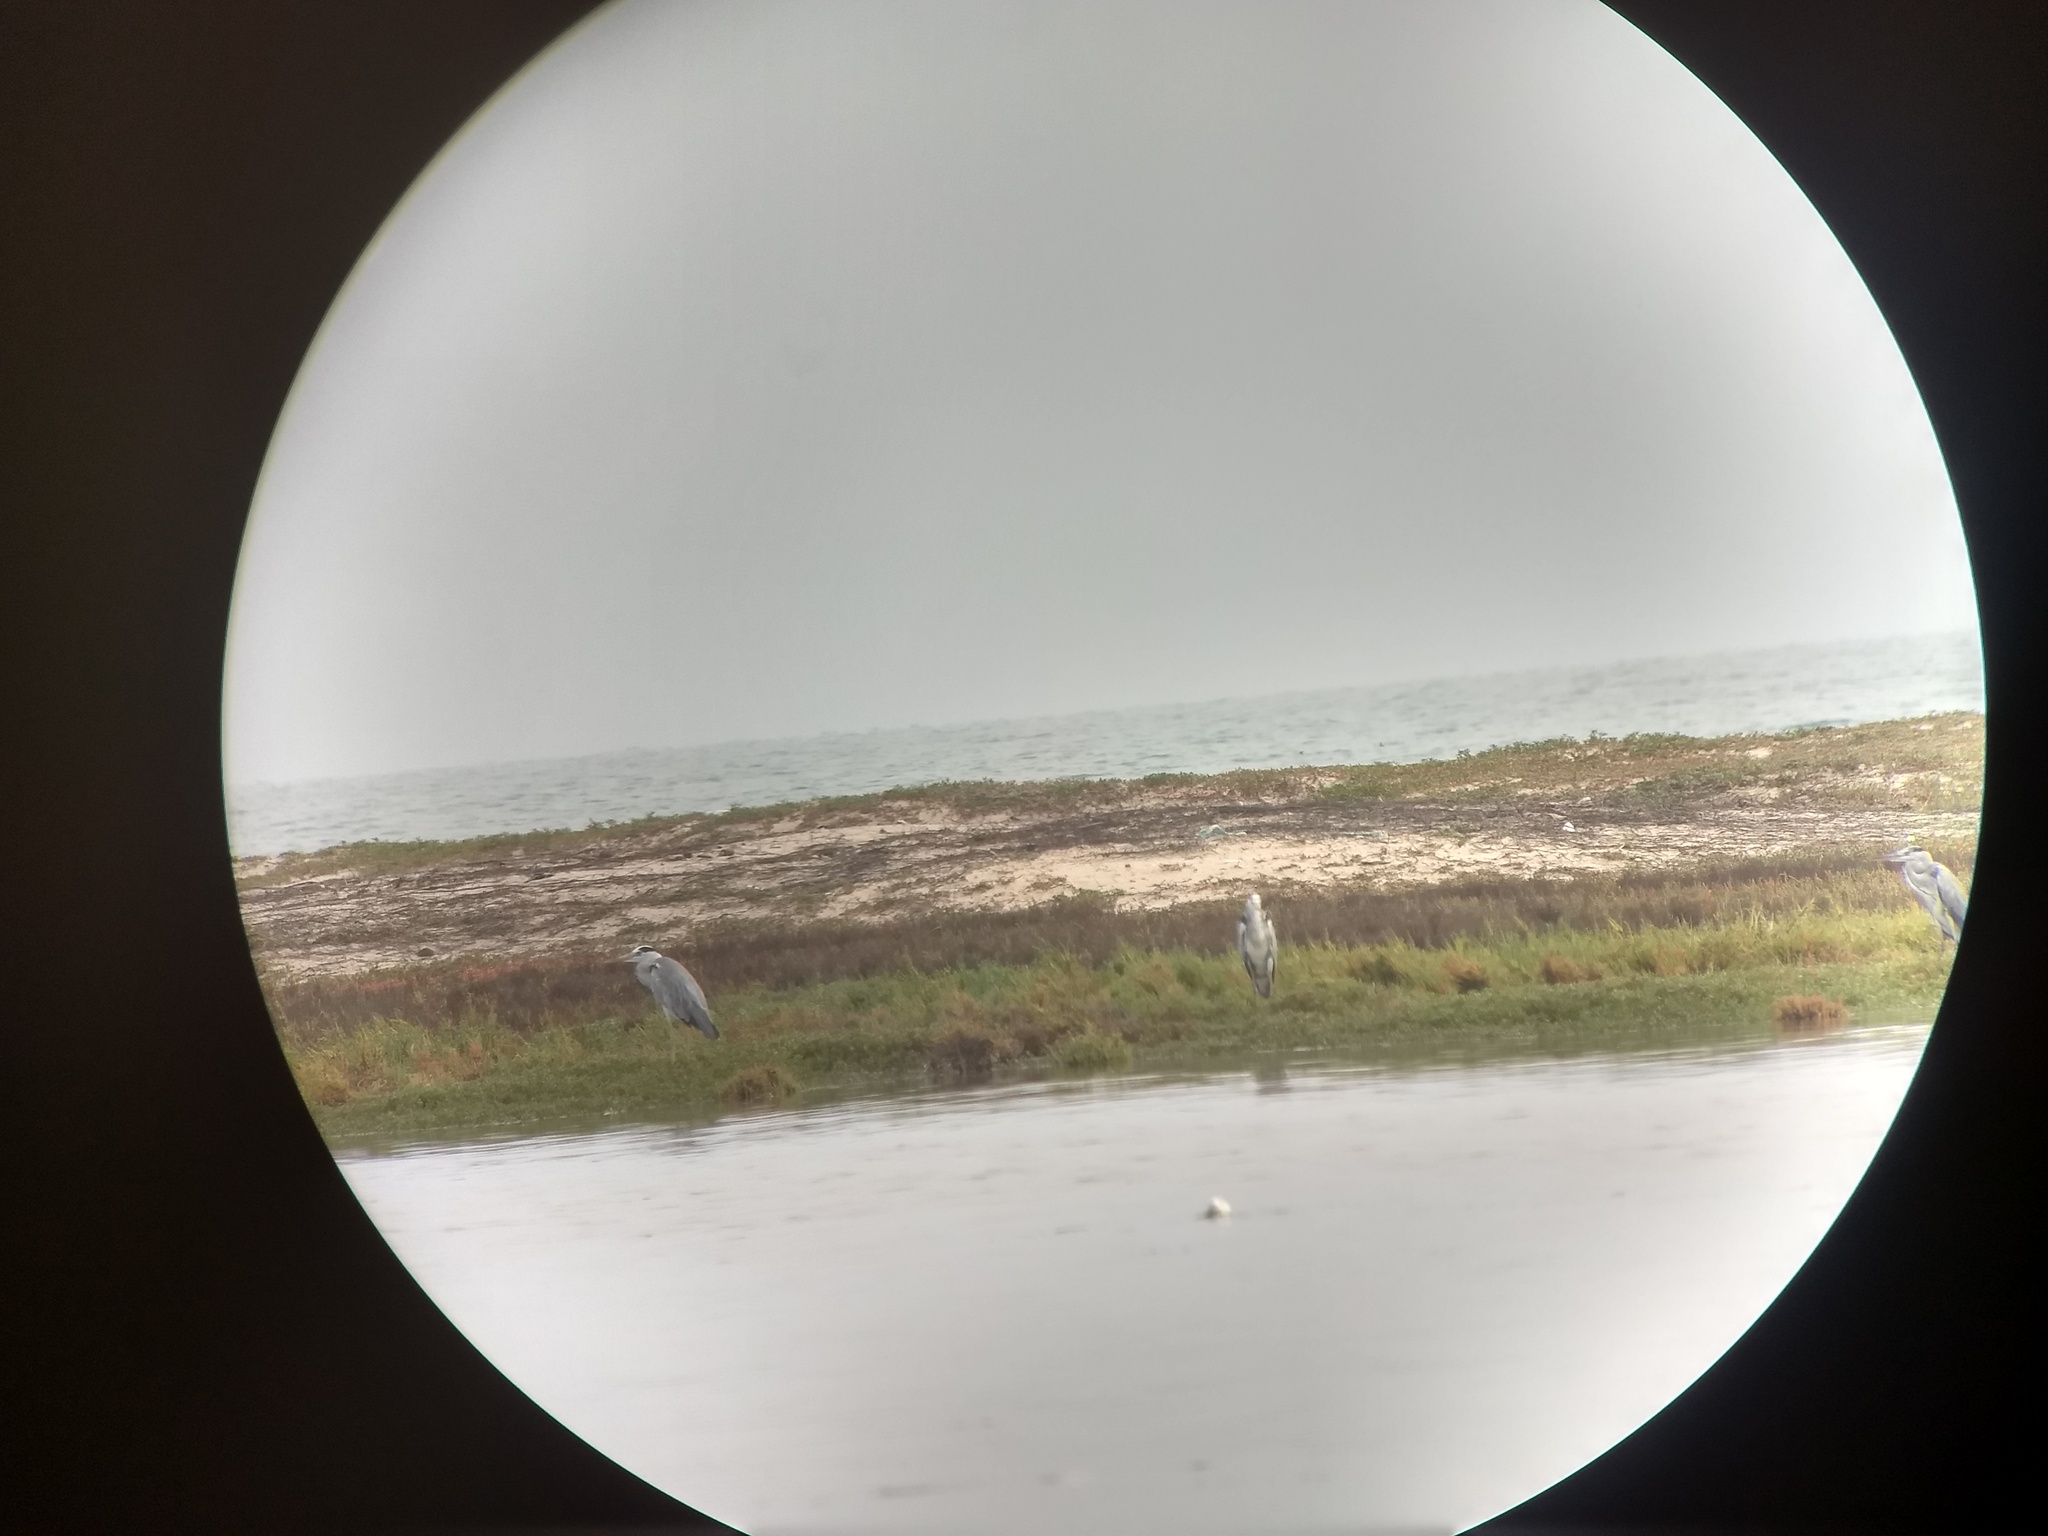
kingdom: Animalia
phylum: Chordata
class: Aves
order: Pelecaniformes
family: Ardeidae
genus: Ardea
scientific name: Ardea cinerea
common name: Grey heron
